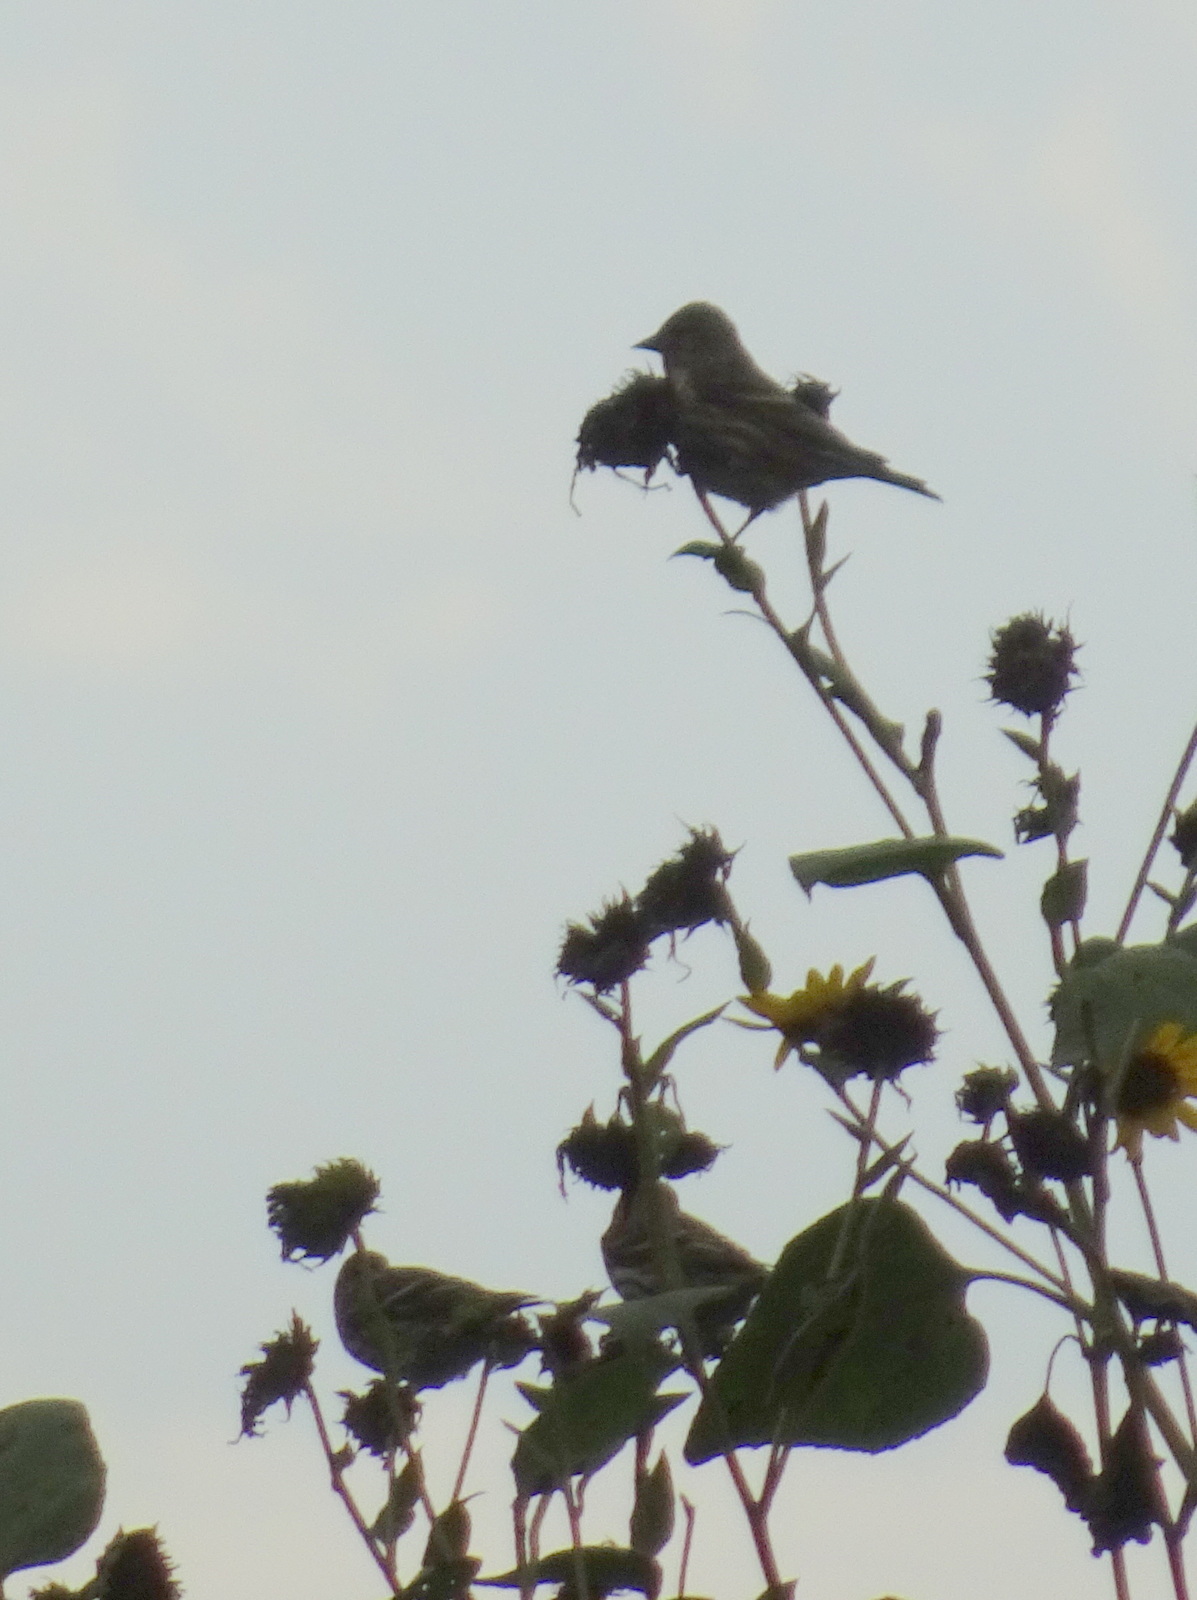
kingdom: Animalia
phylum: Chordata
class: Aves
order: Passeriformes
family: Fringillidae
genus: Spinus
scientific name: Spinus pinus
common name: Pine siskin
